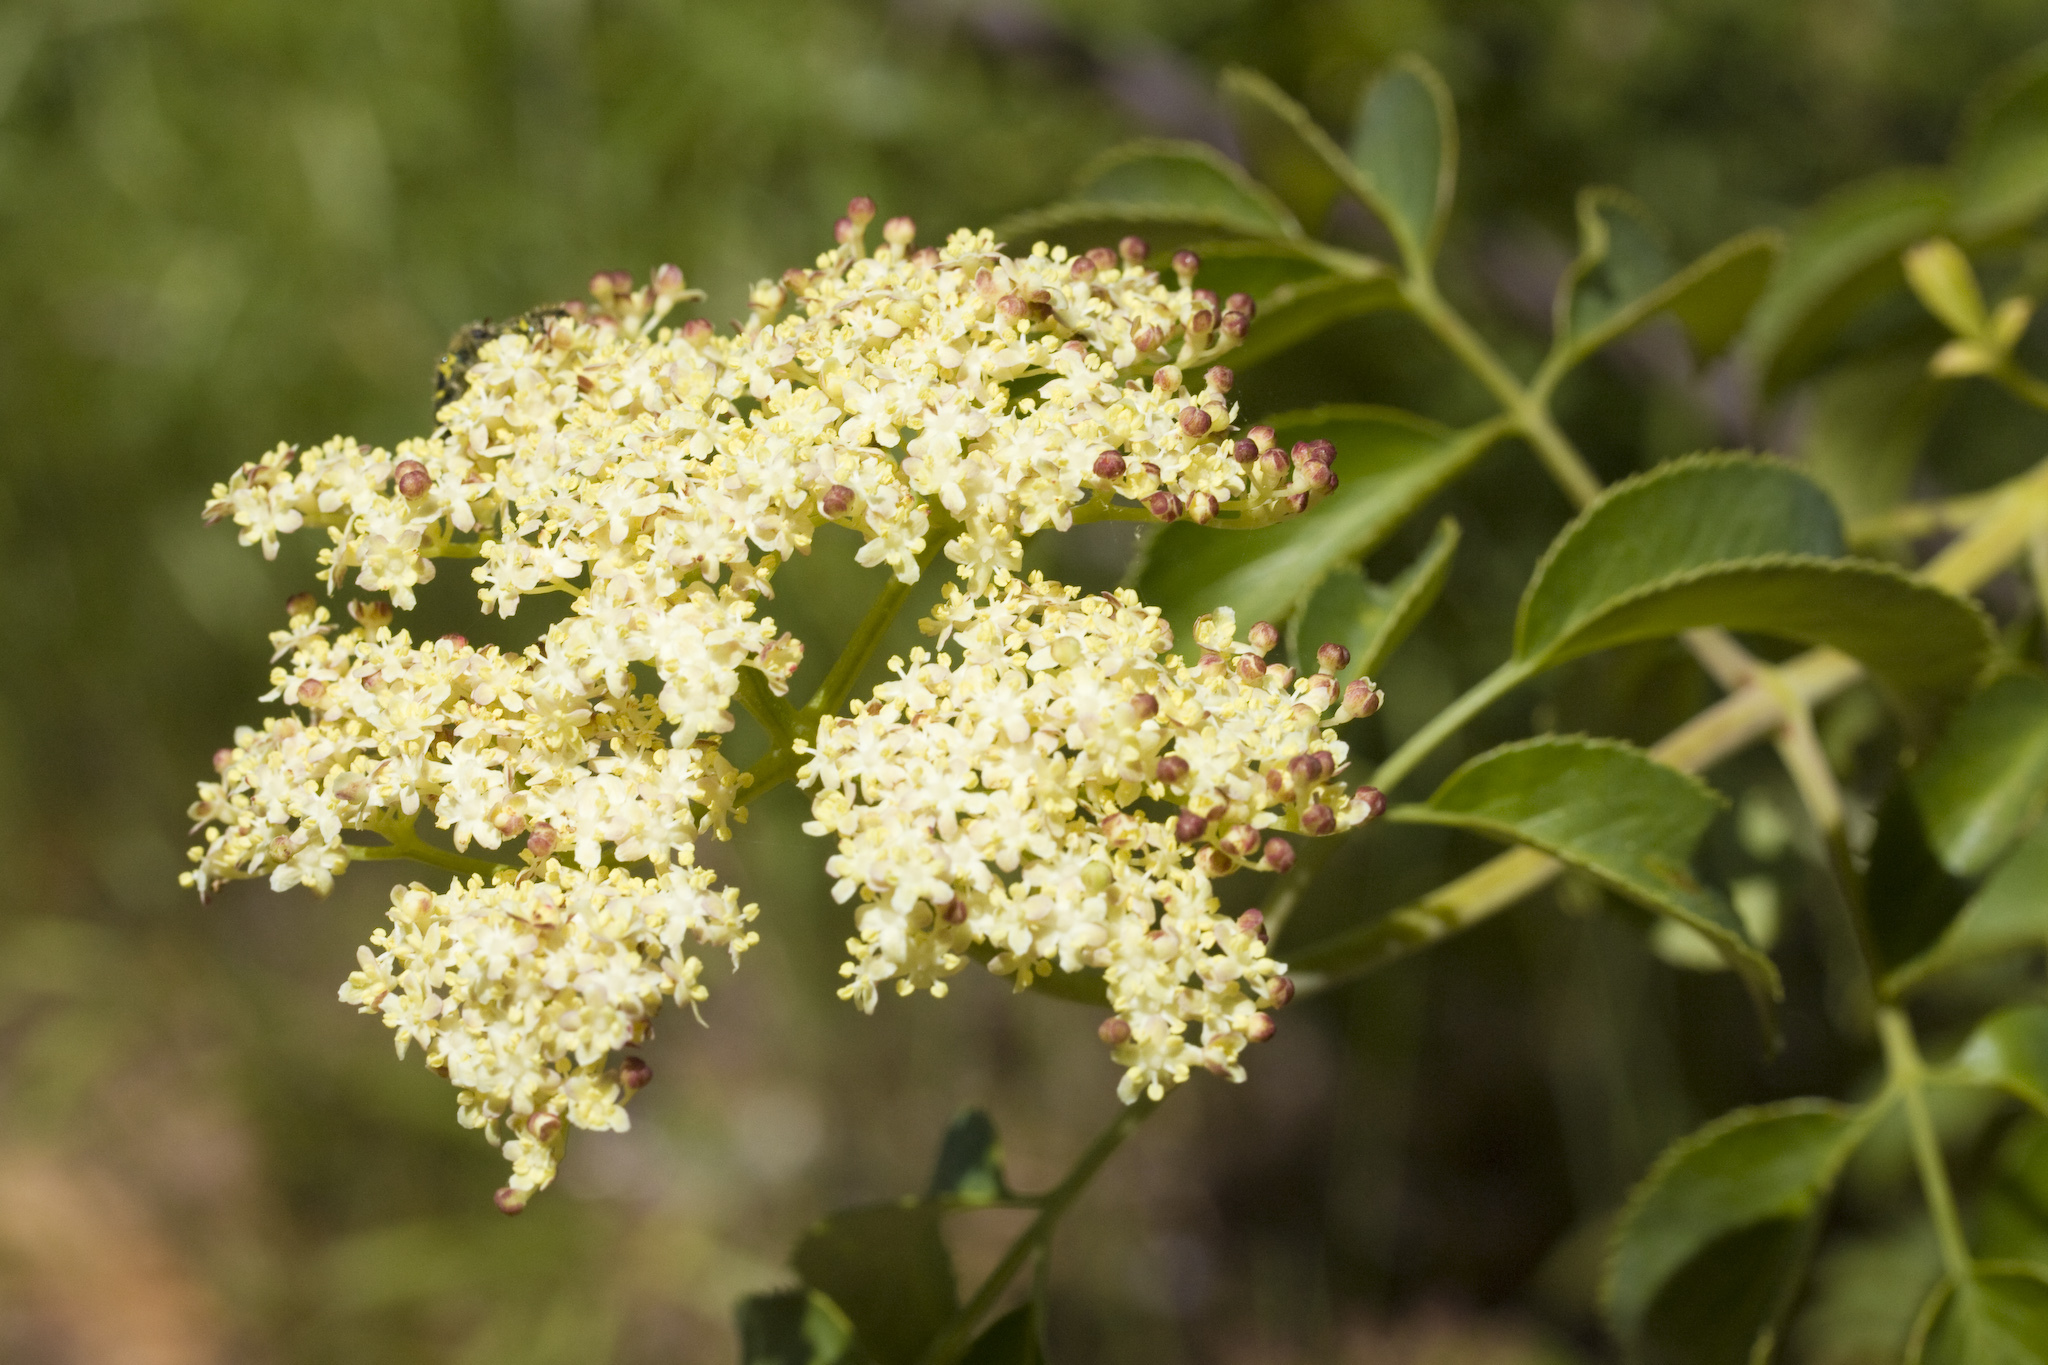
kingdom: Plantae
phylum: Tracheophyta
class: Magnoliopsida
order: Dipsacales
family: Viburnaceae
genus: Sambucus
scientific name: Sambucus cerulea
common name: Blue elder
